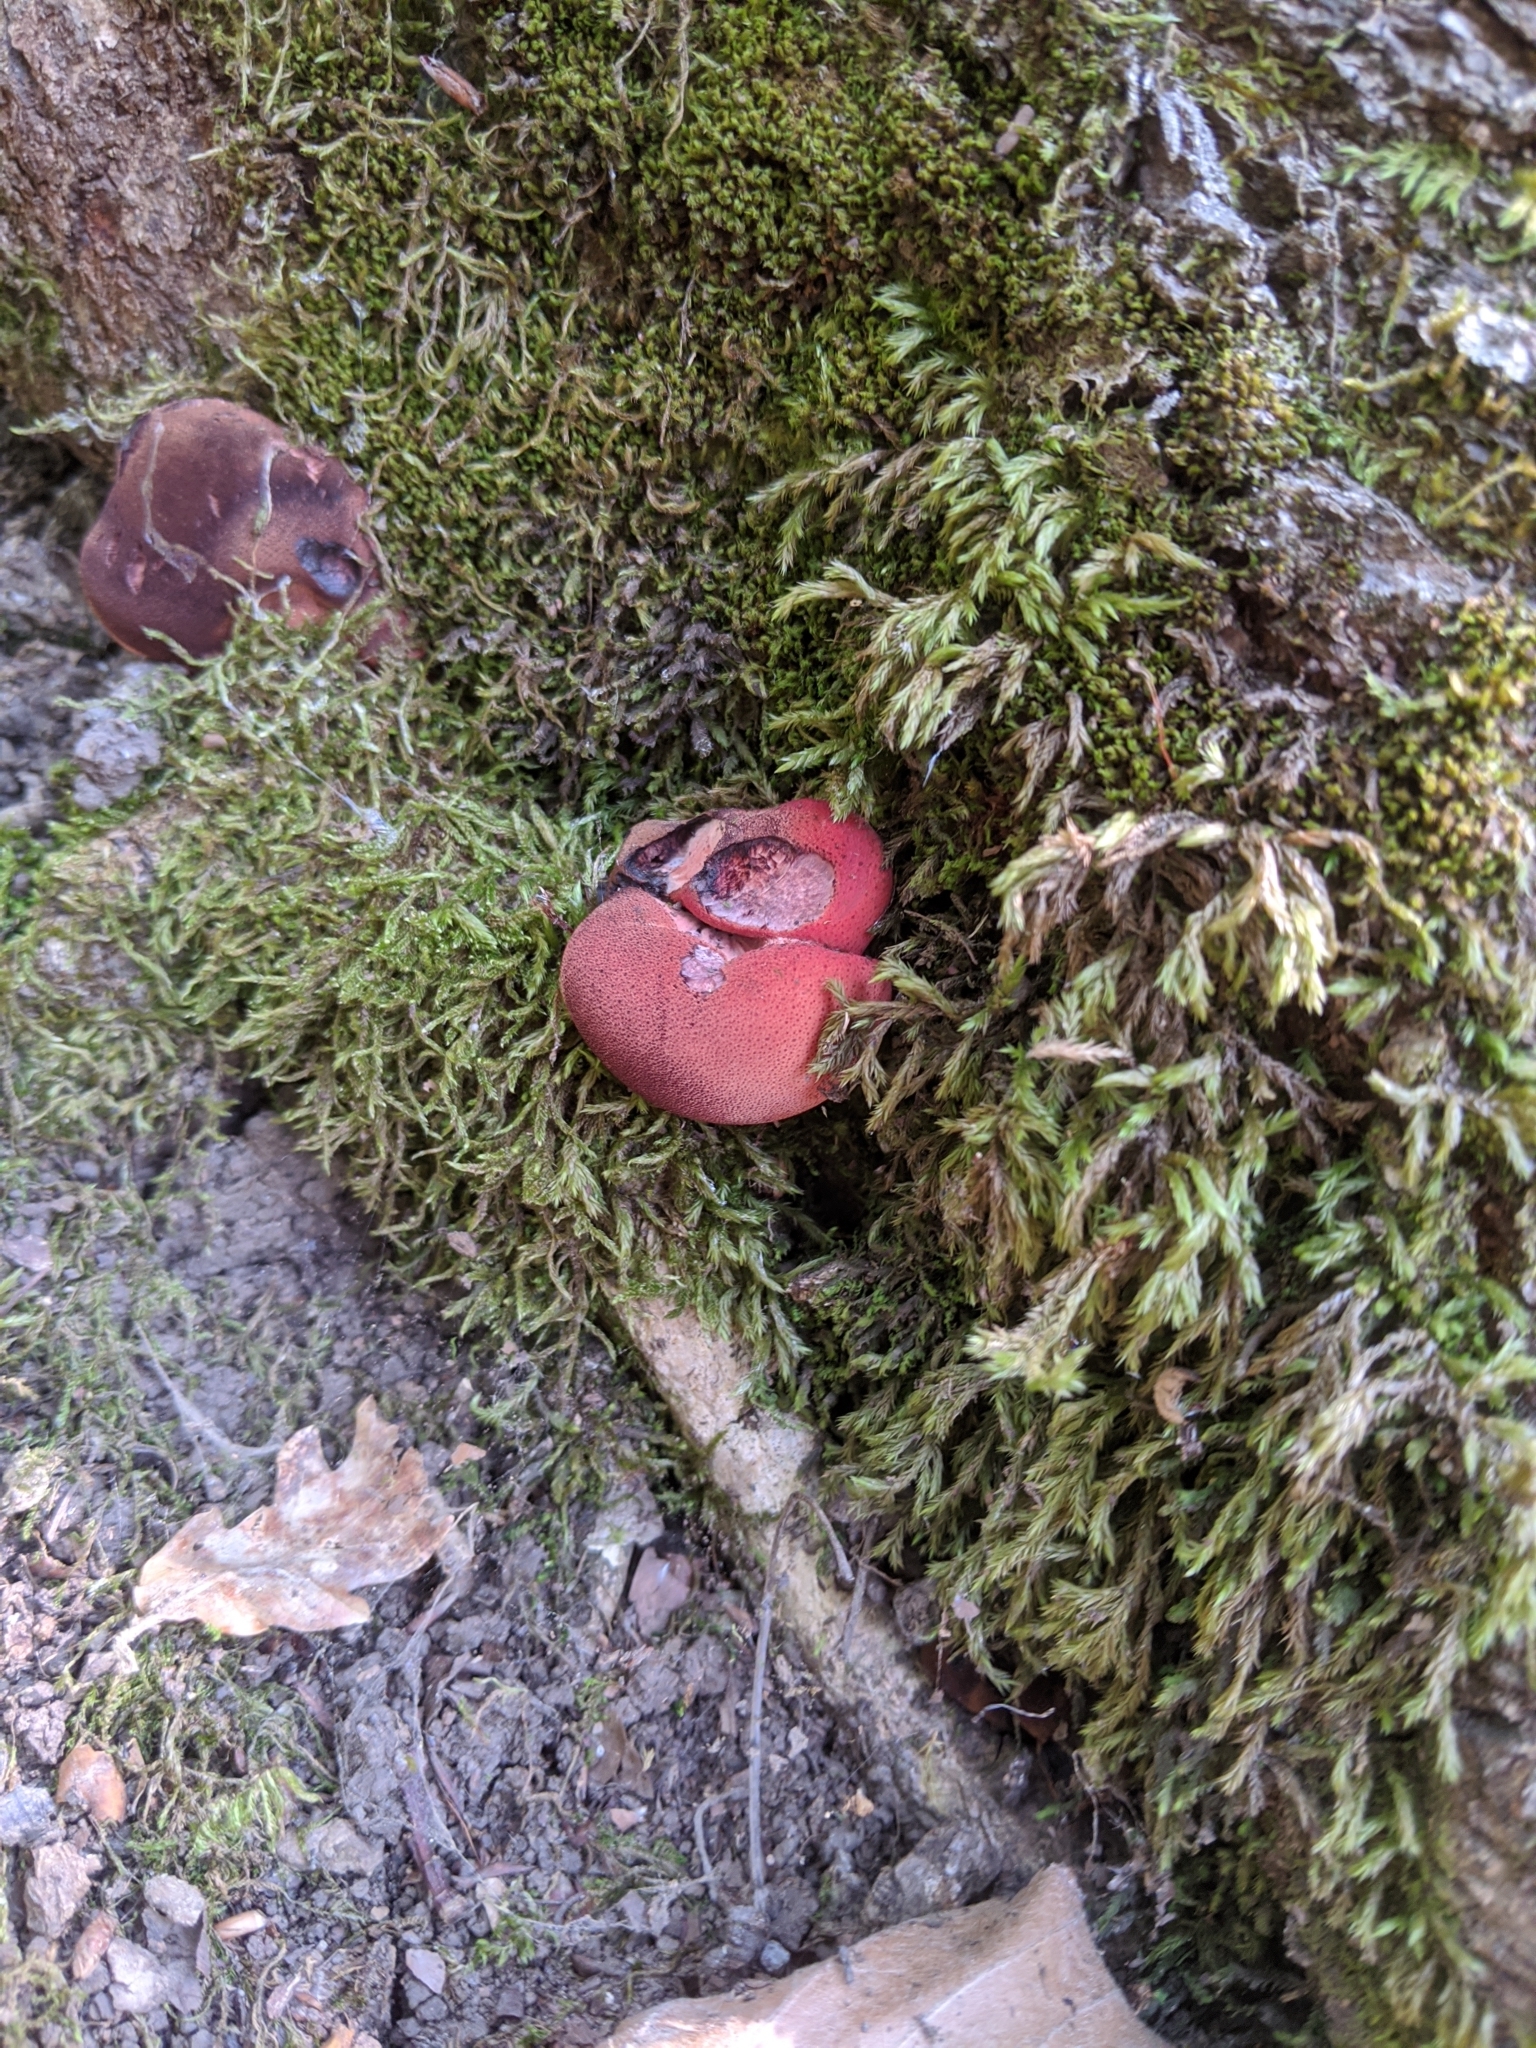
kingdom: Fungi
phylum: Basidiomycota
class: Agaricomycetes
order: Agaricales
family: Fistulinaceae
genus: Fistulina
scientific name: Fistulina hepatica
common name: Beef-steak fungus
